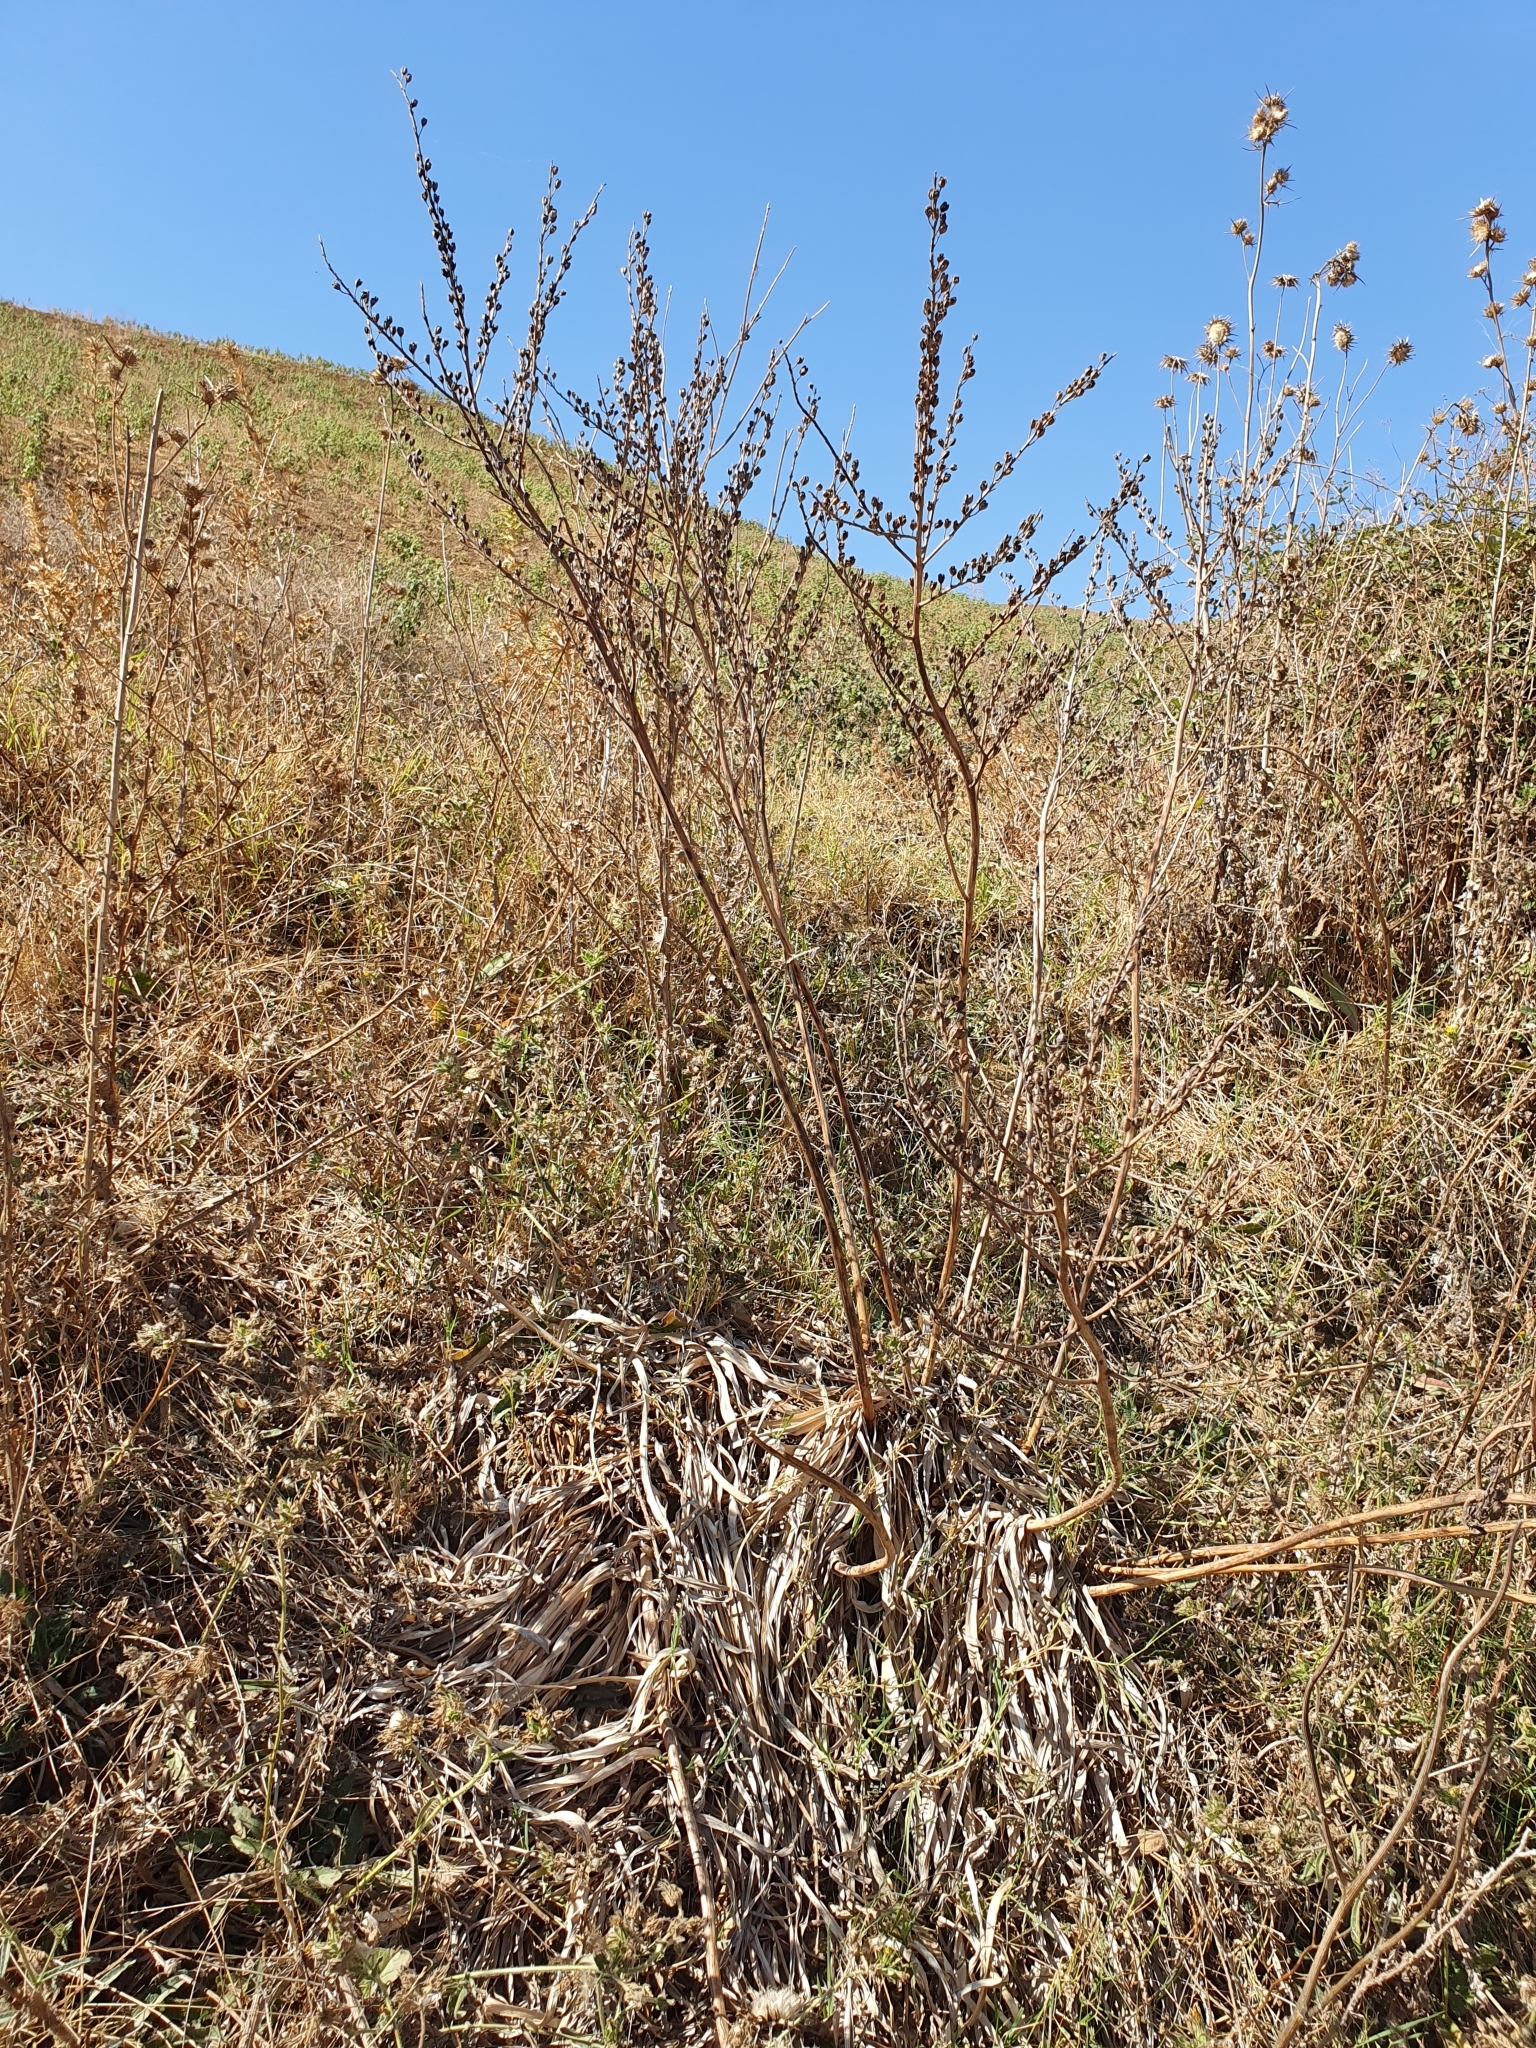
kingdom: Plantae
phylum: Tracheophyta
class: Liliopsida
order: Asparagales
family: Asphodelaceae
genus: Asphodelus
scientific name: Asphodelus ramosus
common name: Silverrod
